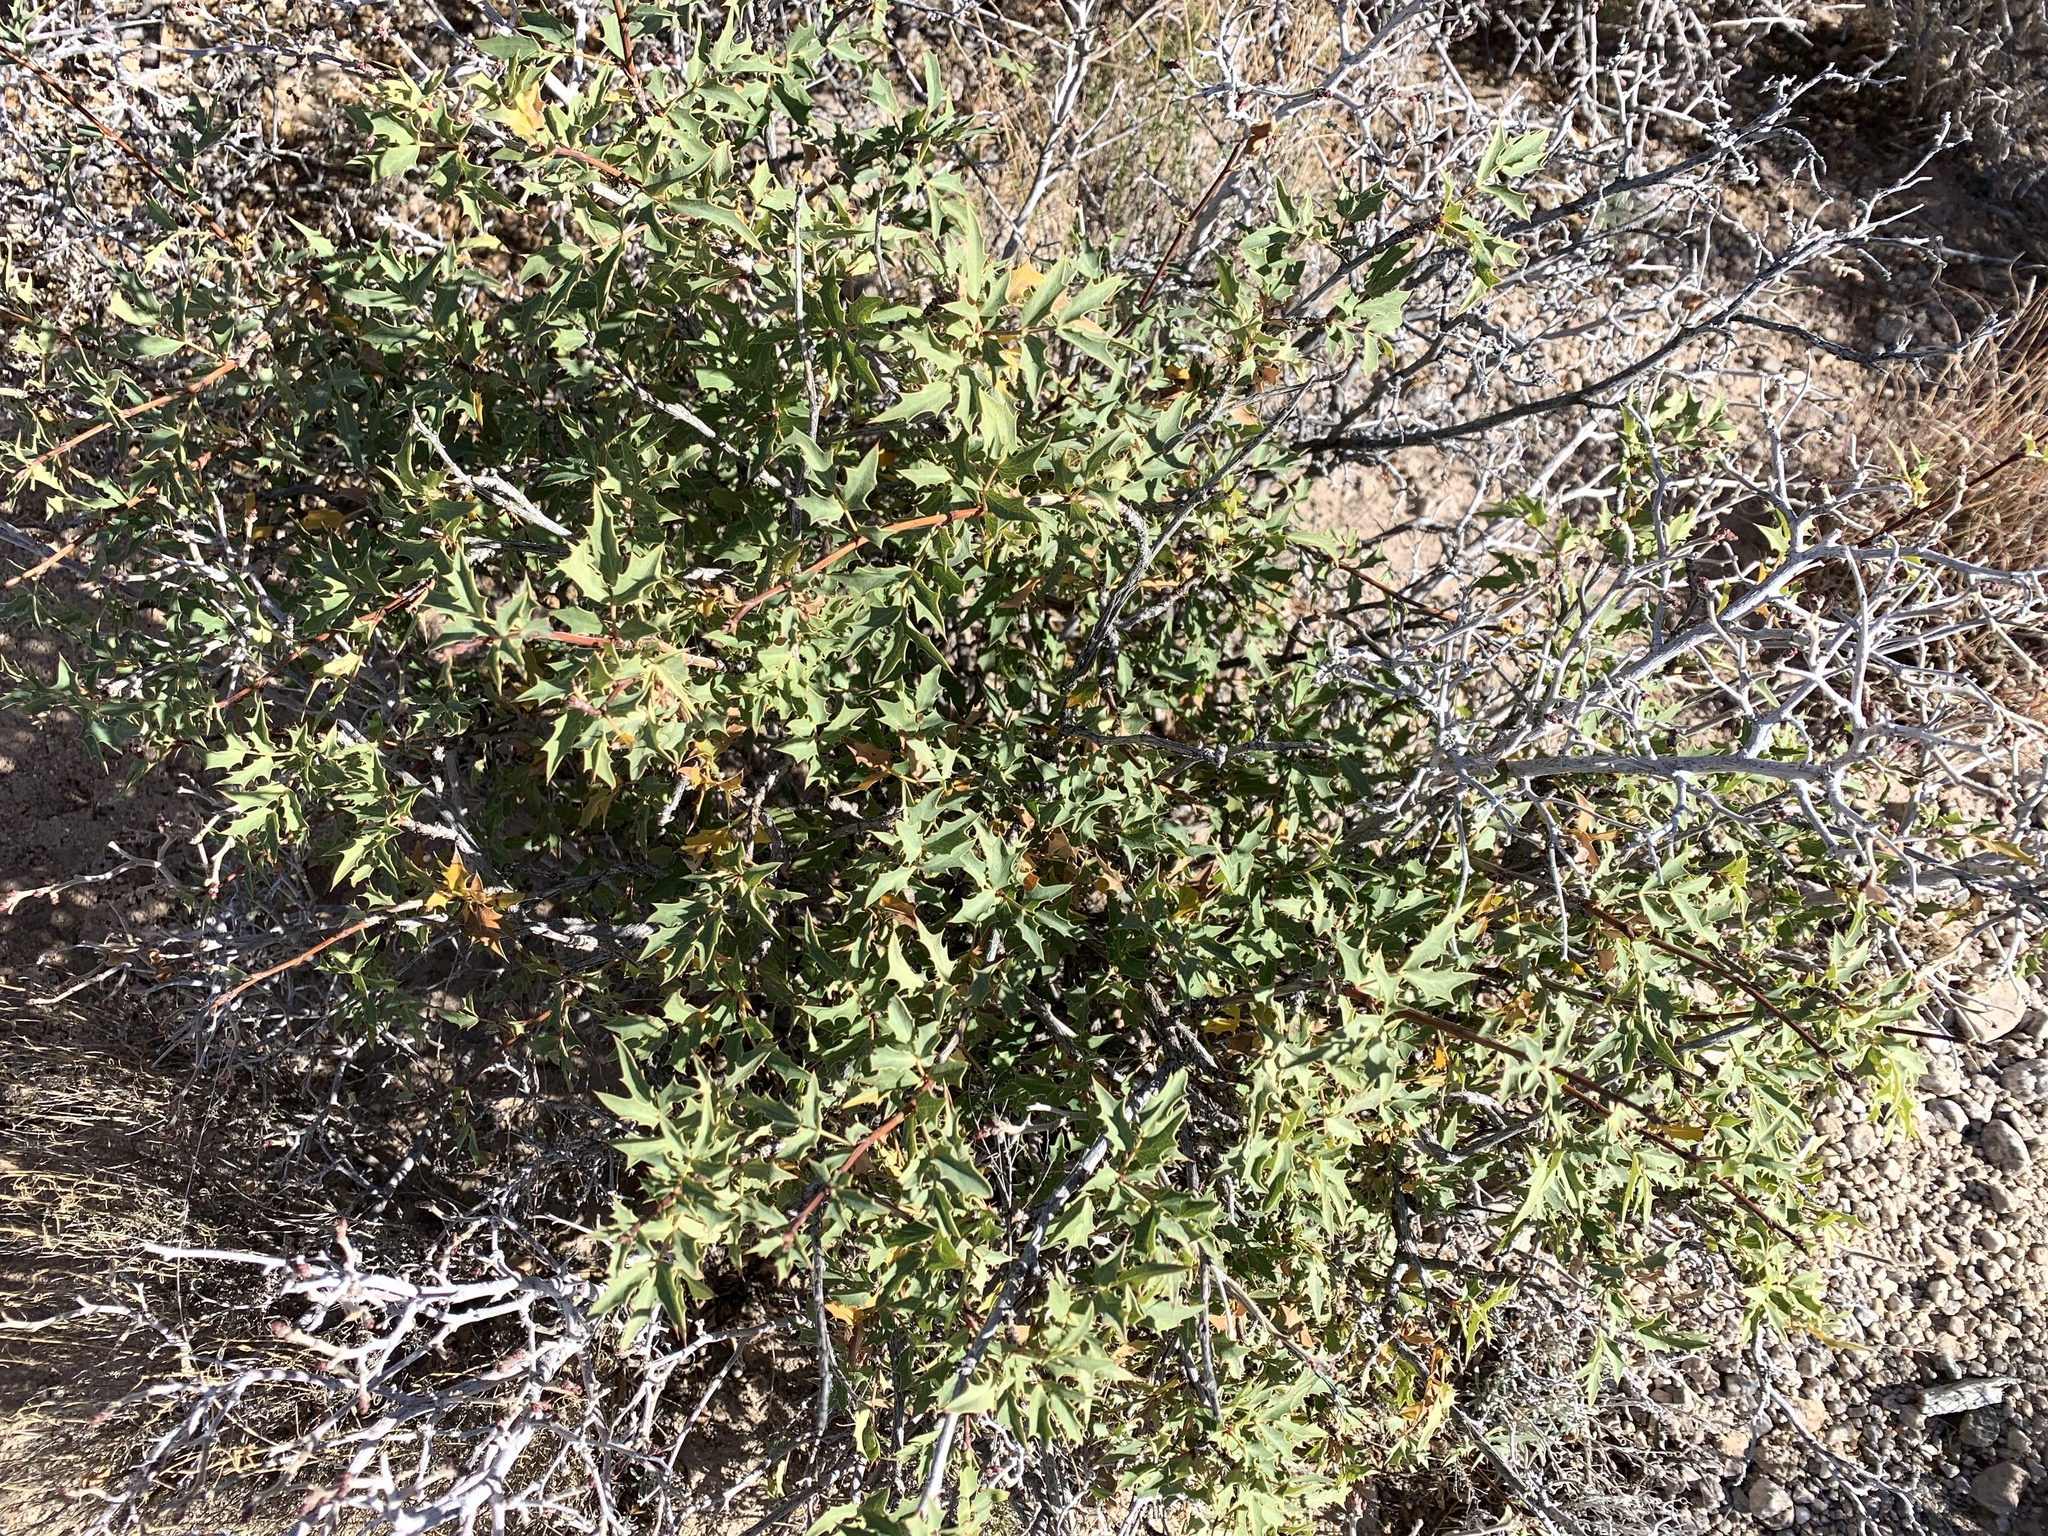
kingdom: Plantae
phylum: Tracheophyta
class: Magnoliopsida
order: Ranunculales
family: Berberidaceae
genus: Alloberberis
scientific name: Alloberberis haematocarpa
